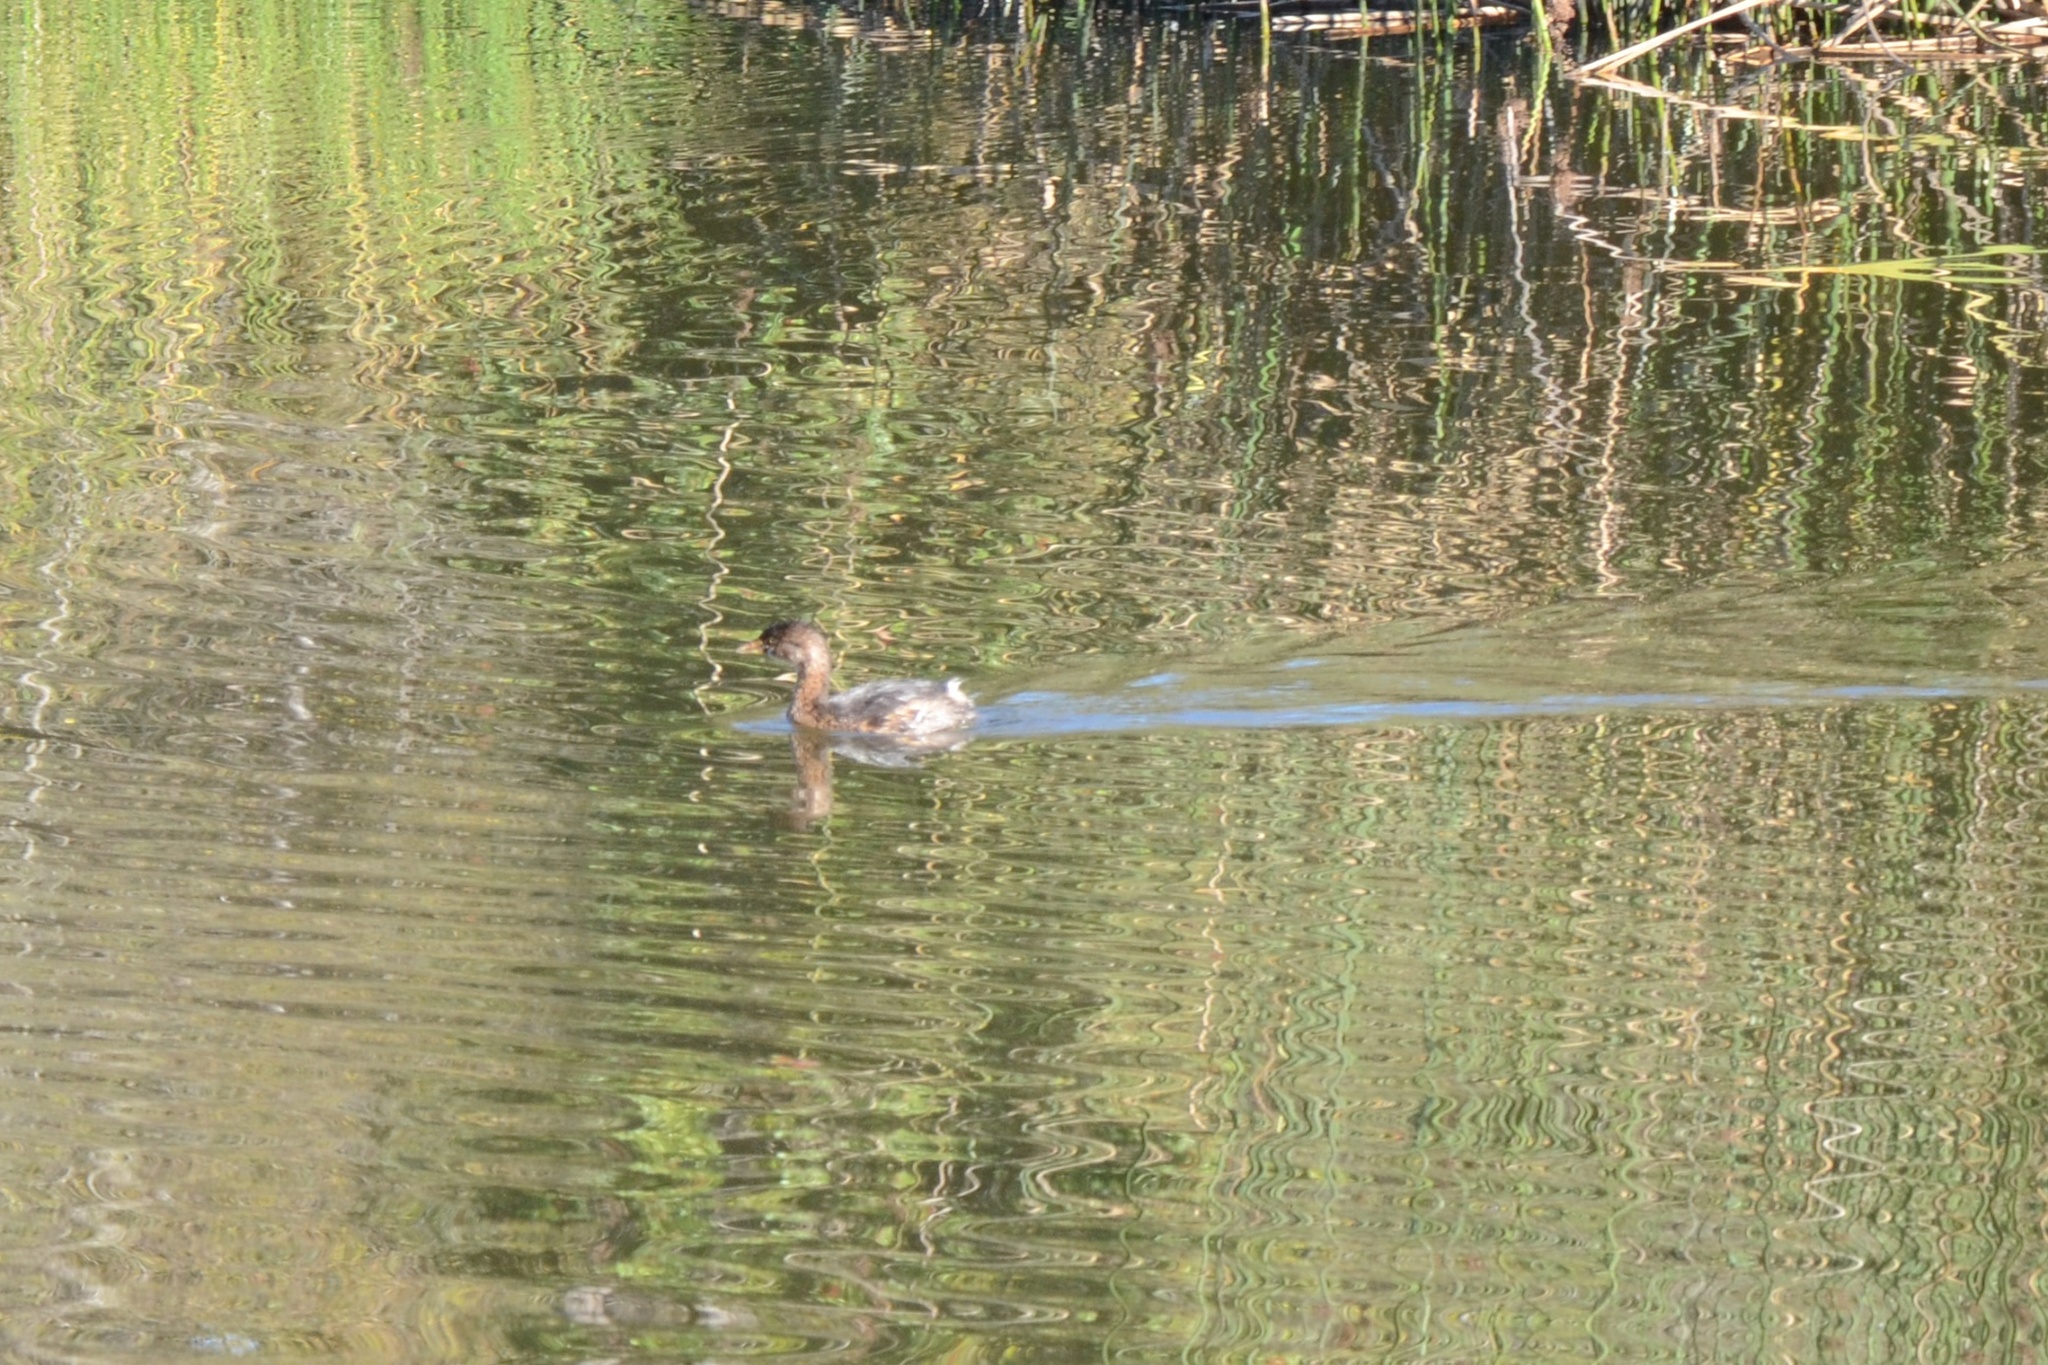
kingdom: Animalia
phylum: Chordata
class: Aves
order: Podicipediformes
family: Podicipedidae
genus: Podilymbus
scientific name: Podilymbus podiceps
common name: Pied-billed grebe
